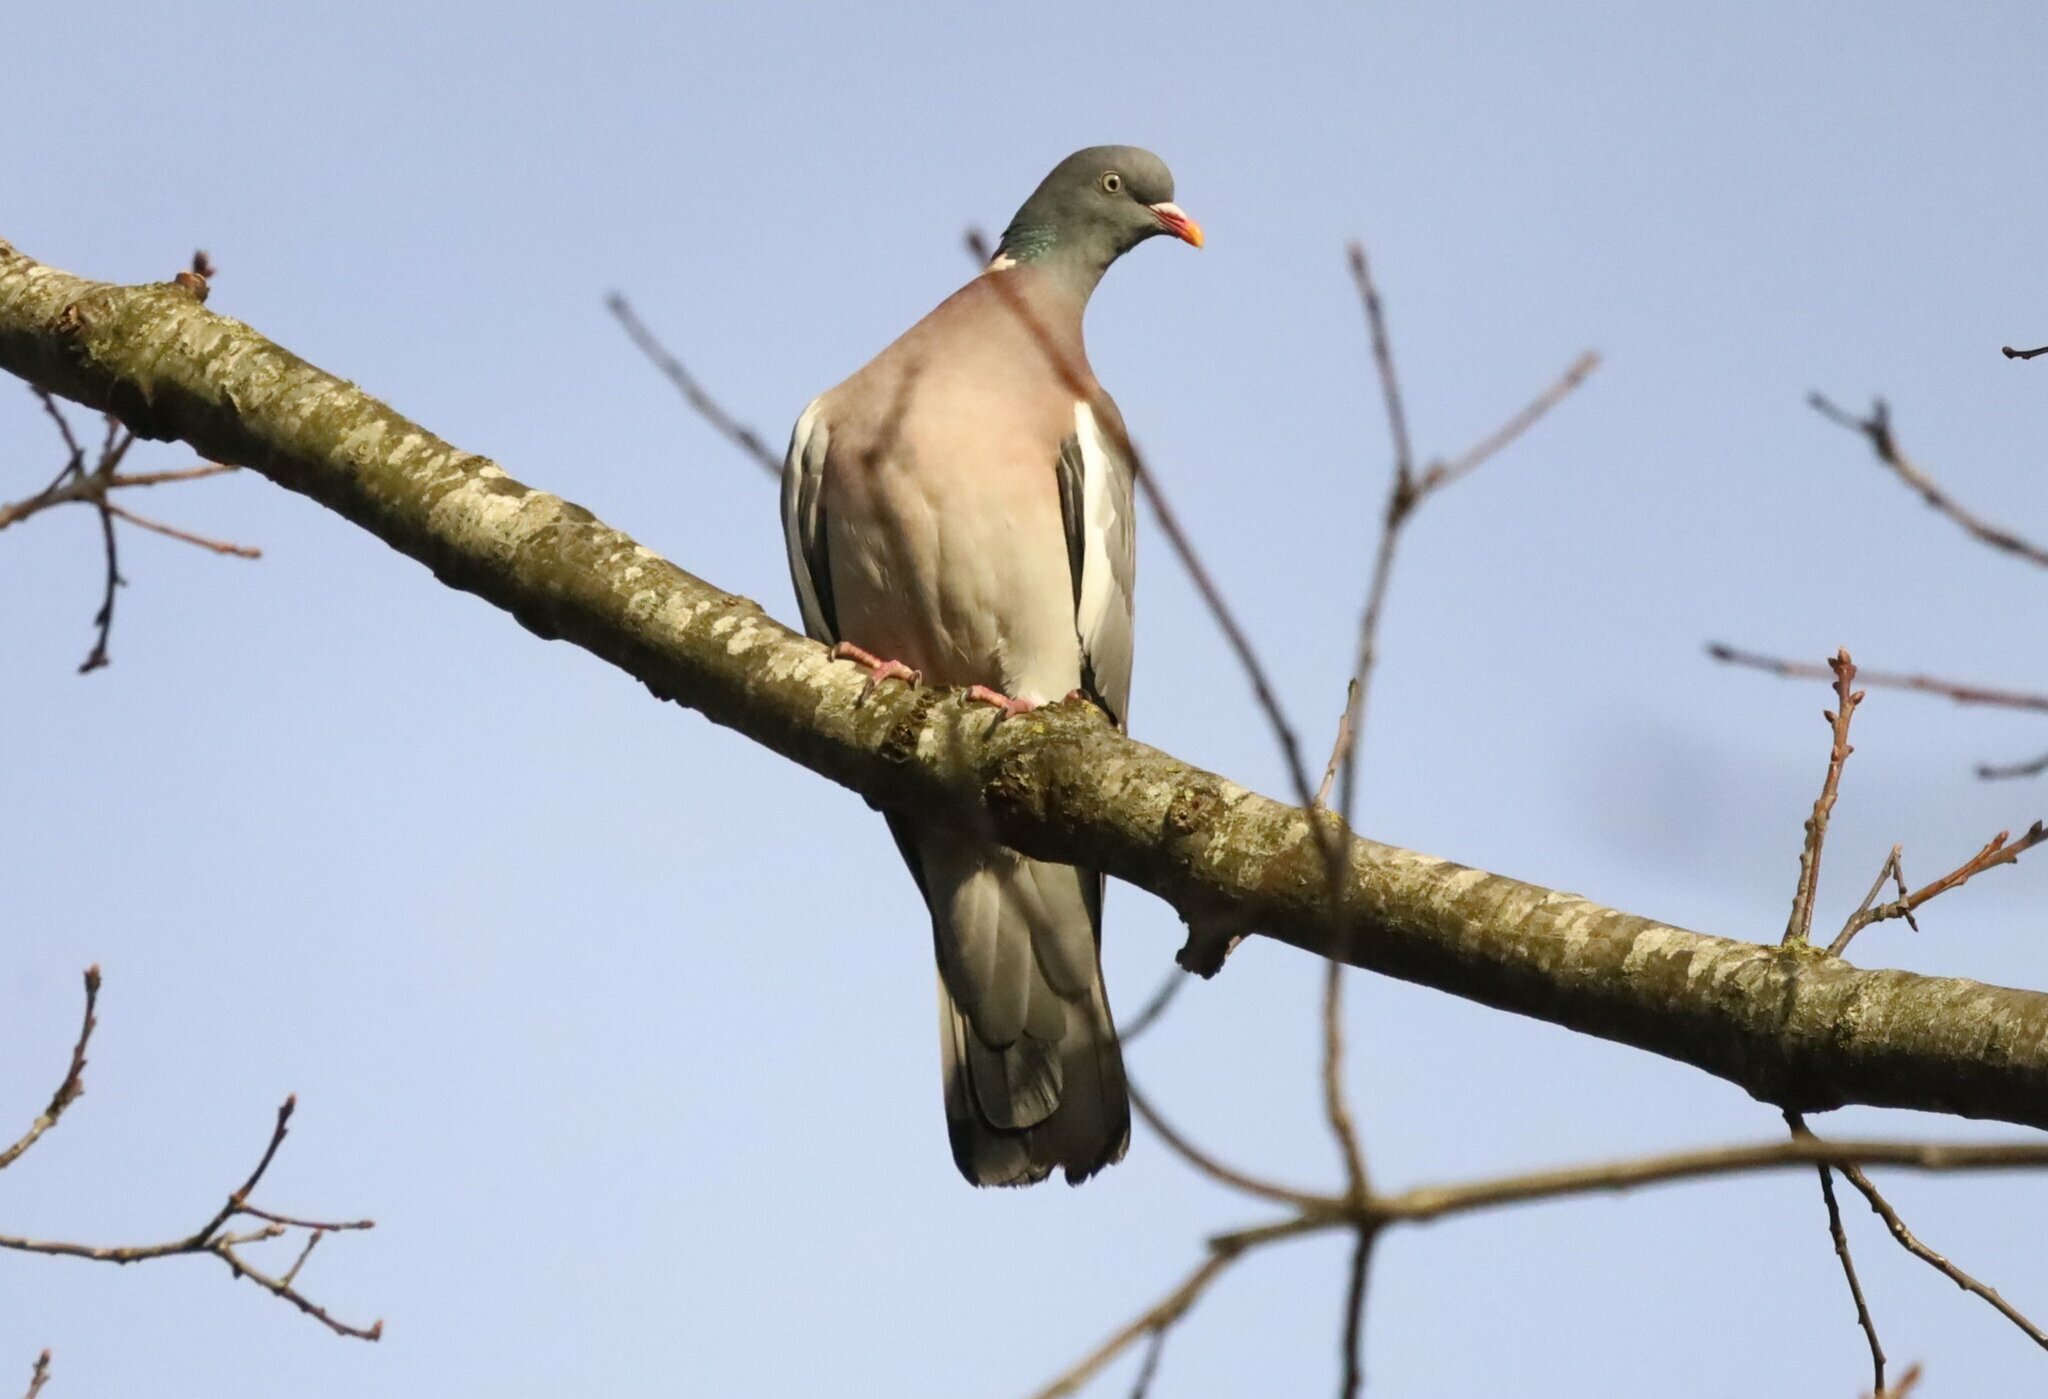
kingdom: Animalia
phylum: Chordata
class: Aves
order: Columbiformes
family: Columbidae
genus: Columba
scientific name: Columba palumbus
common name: Common wood pigeon
